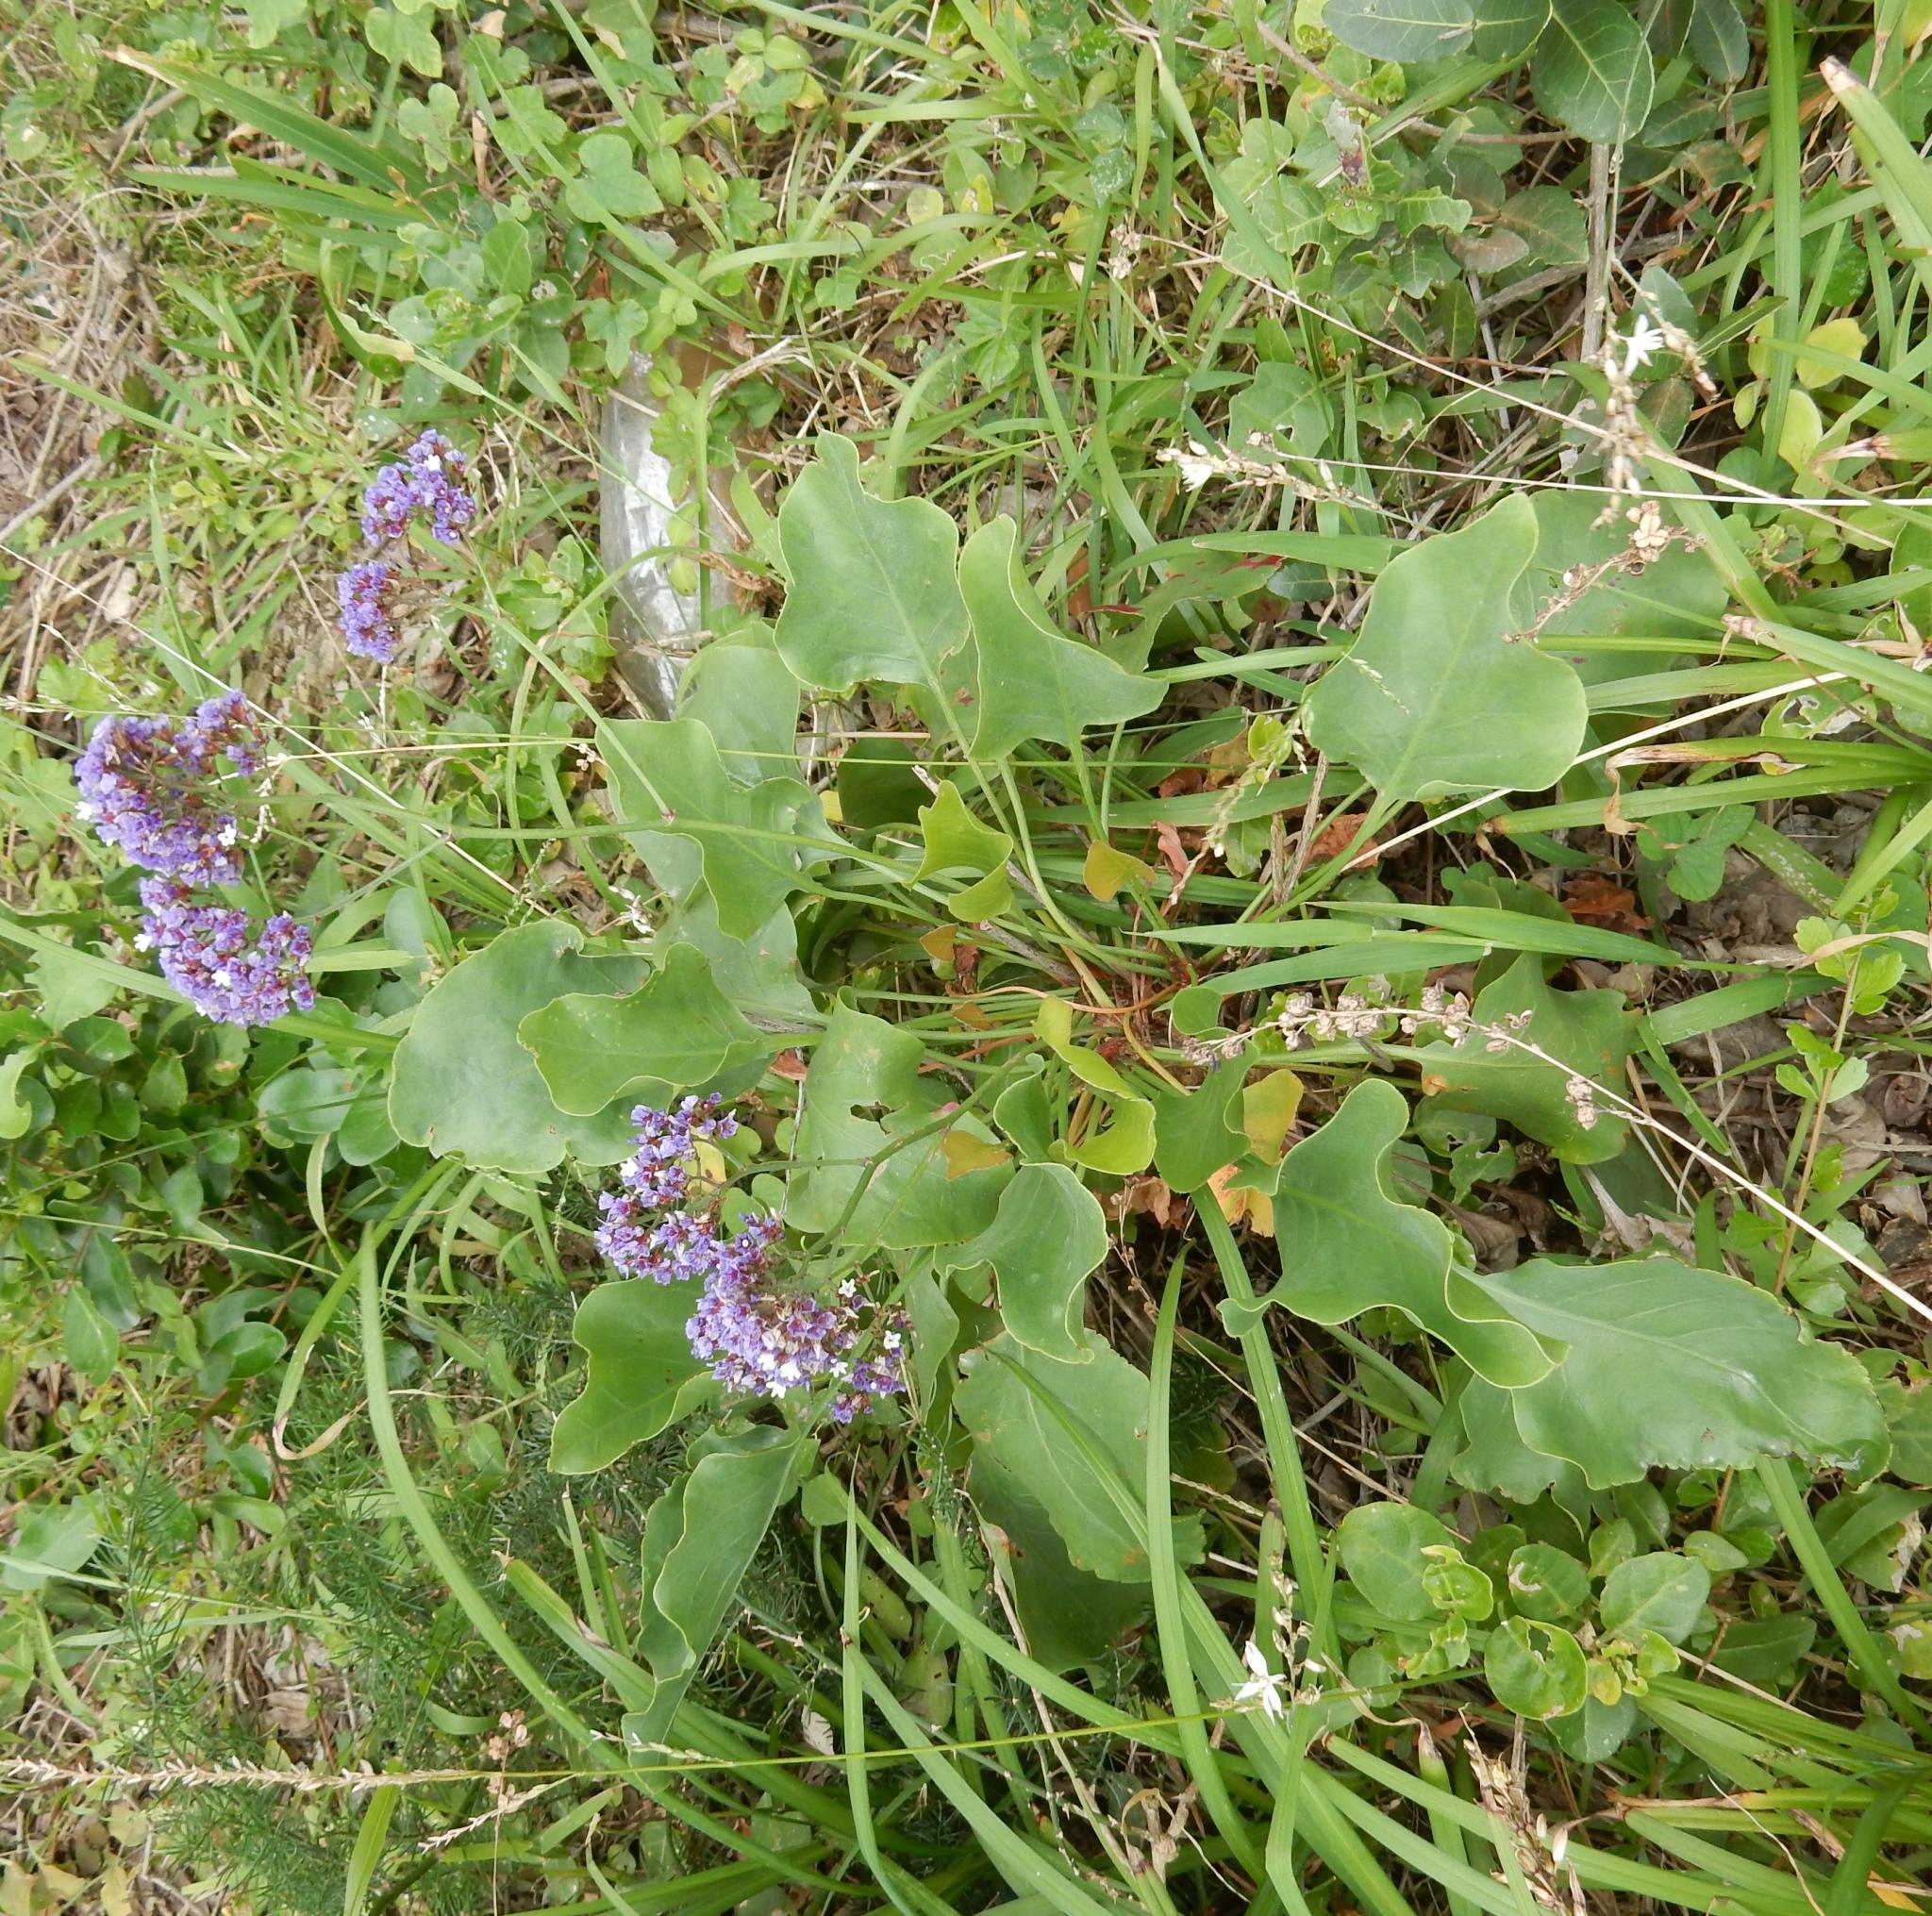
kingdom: Plantae
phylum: Tracheophyta
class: Magnoliopsida
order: Caryophyllales
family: Plumbaginaceae
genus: Limonium
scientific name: Limonium perezii
